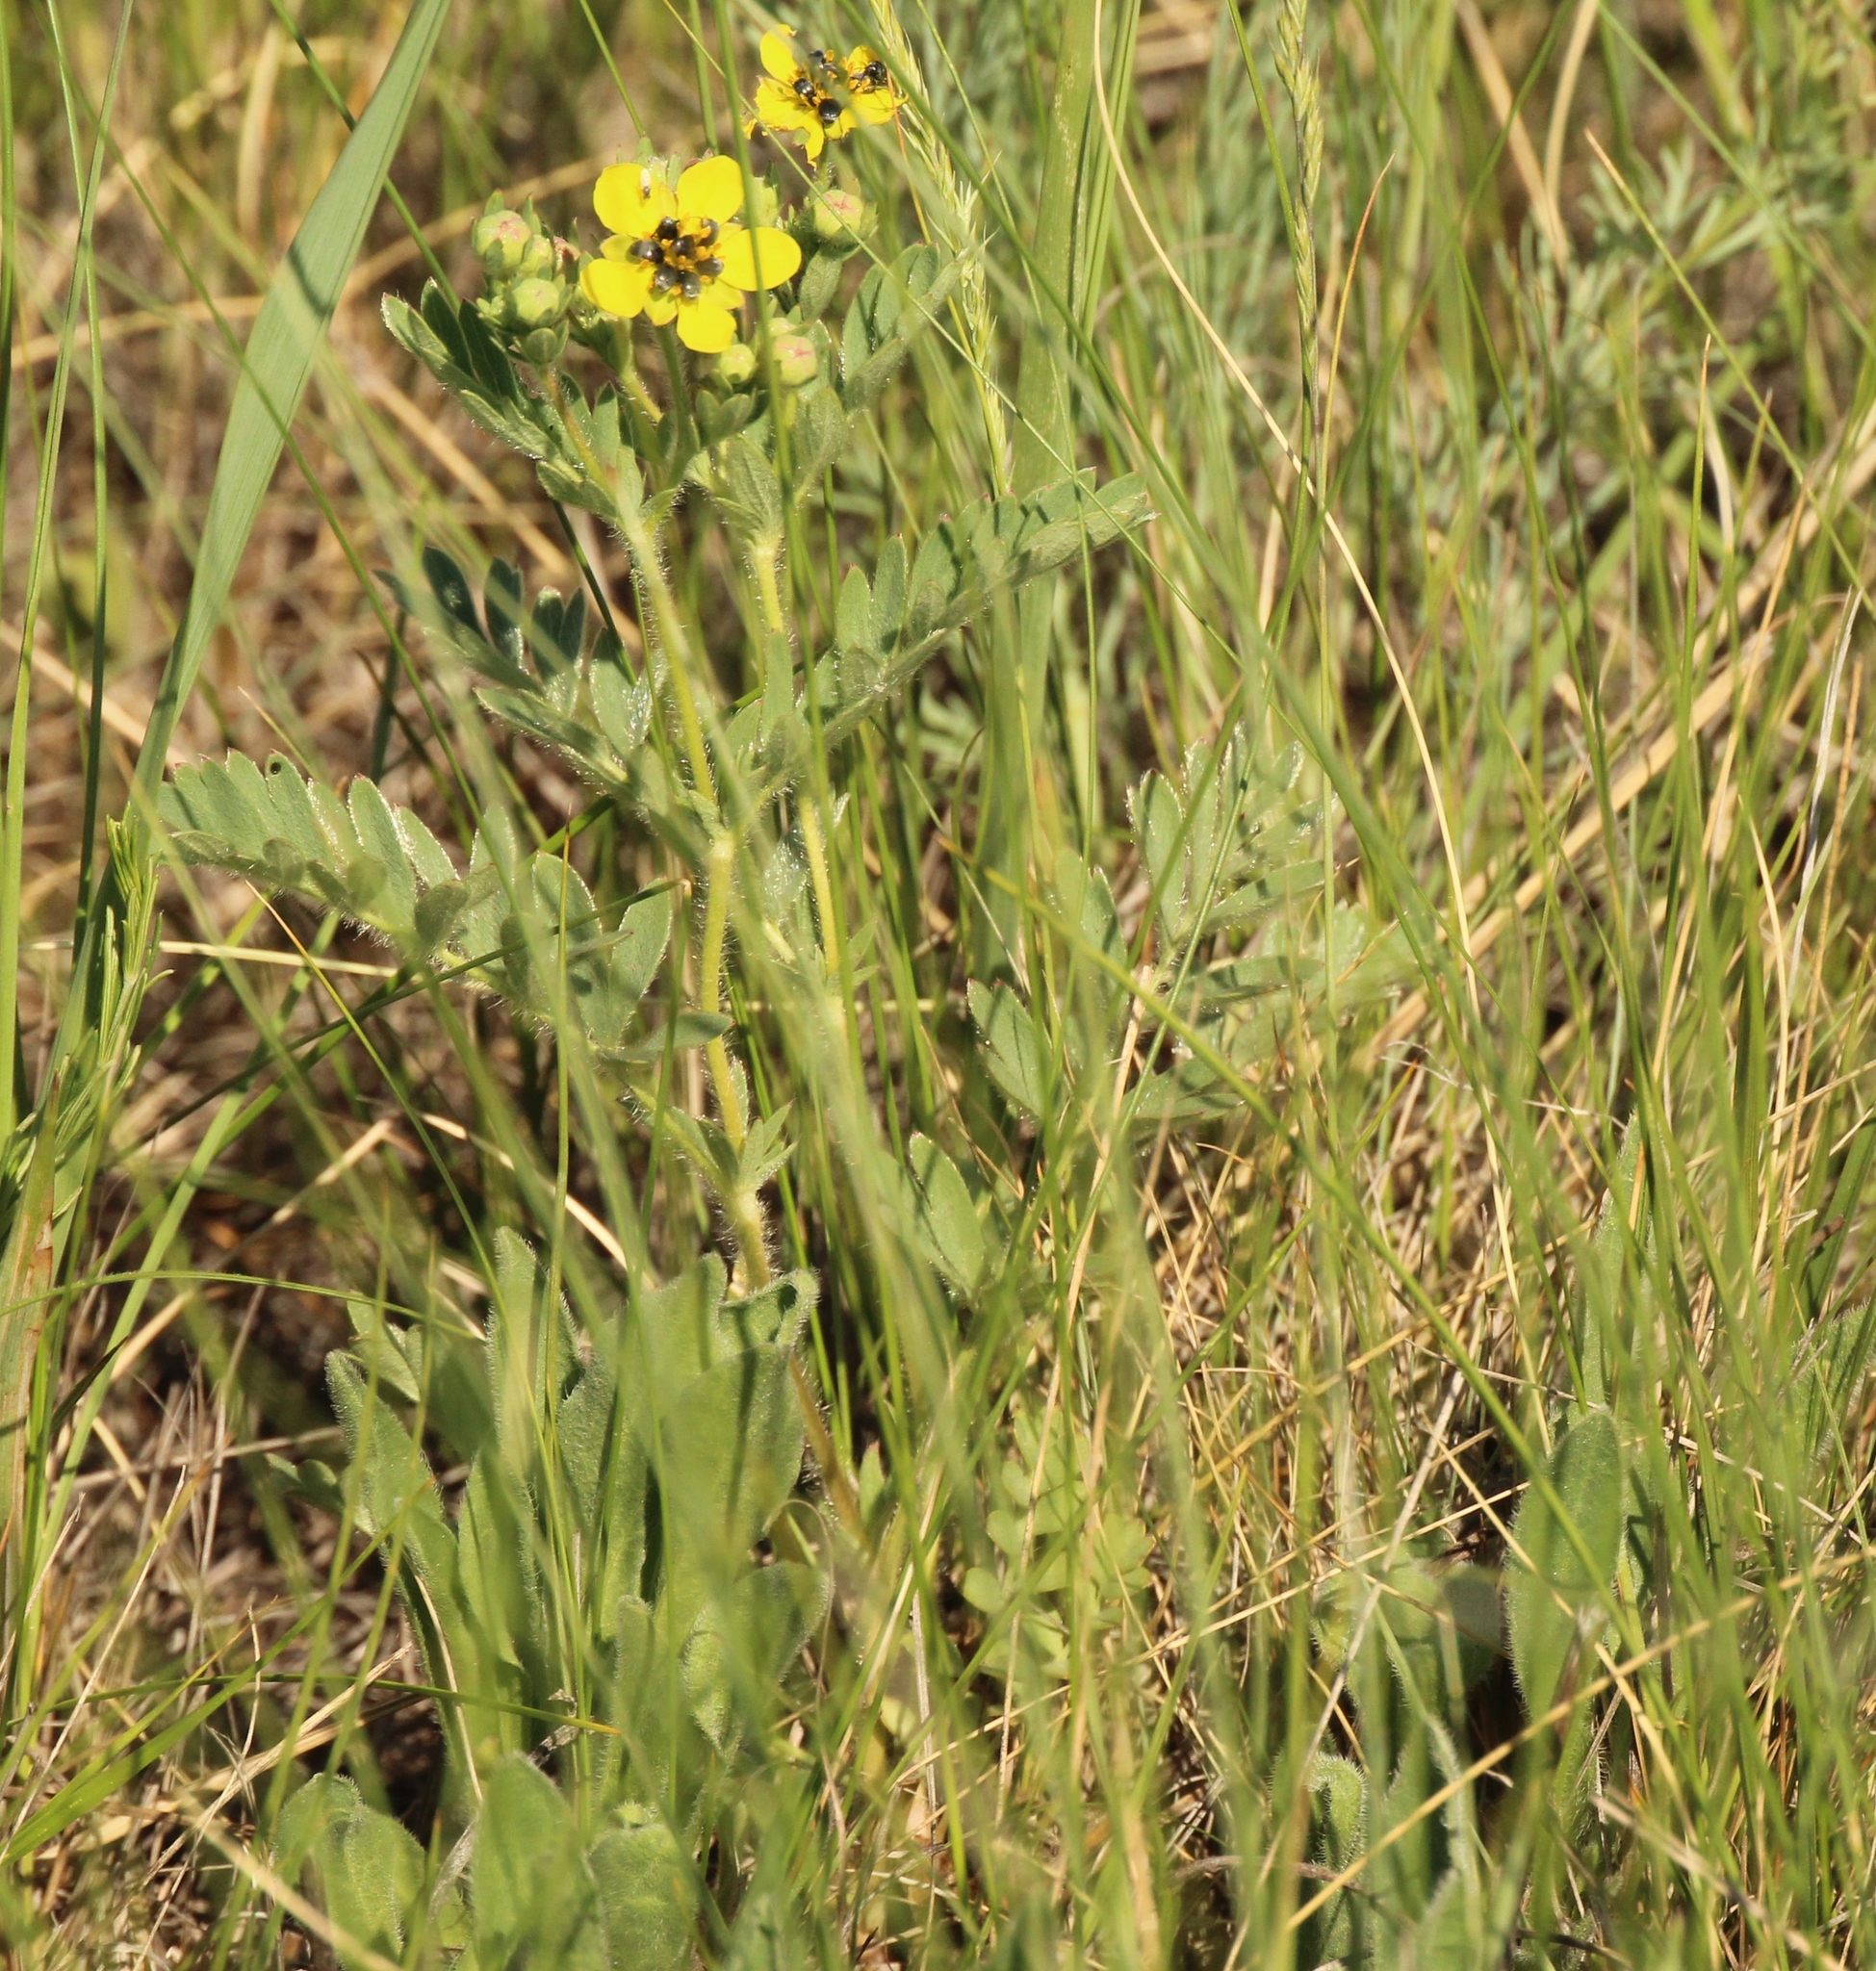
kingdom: Plantae
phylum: Tracheophyta
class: Magnoliopsida
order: Rosales
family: Rosaceae
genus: Sibbaldianthe
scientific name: Sibbaldianthe bifurca
